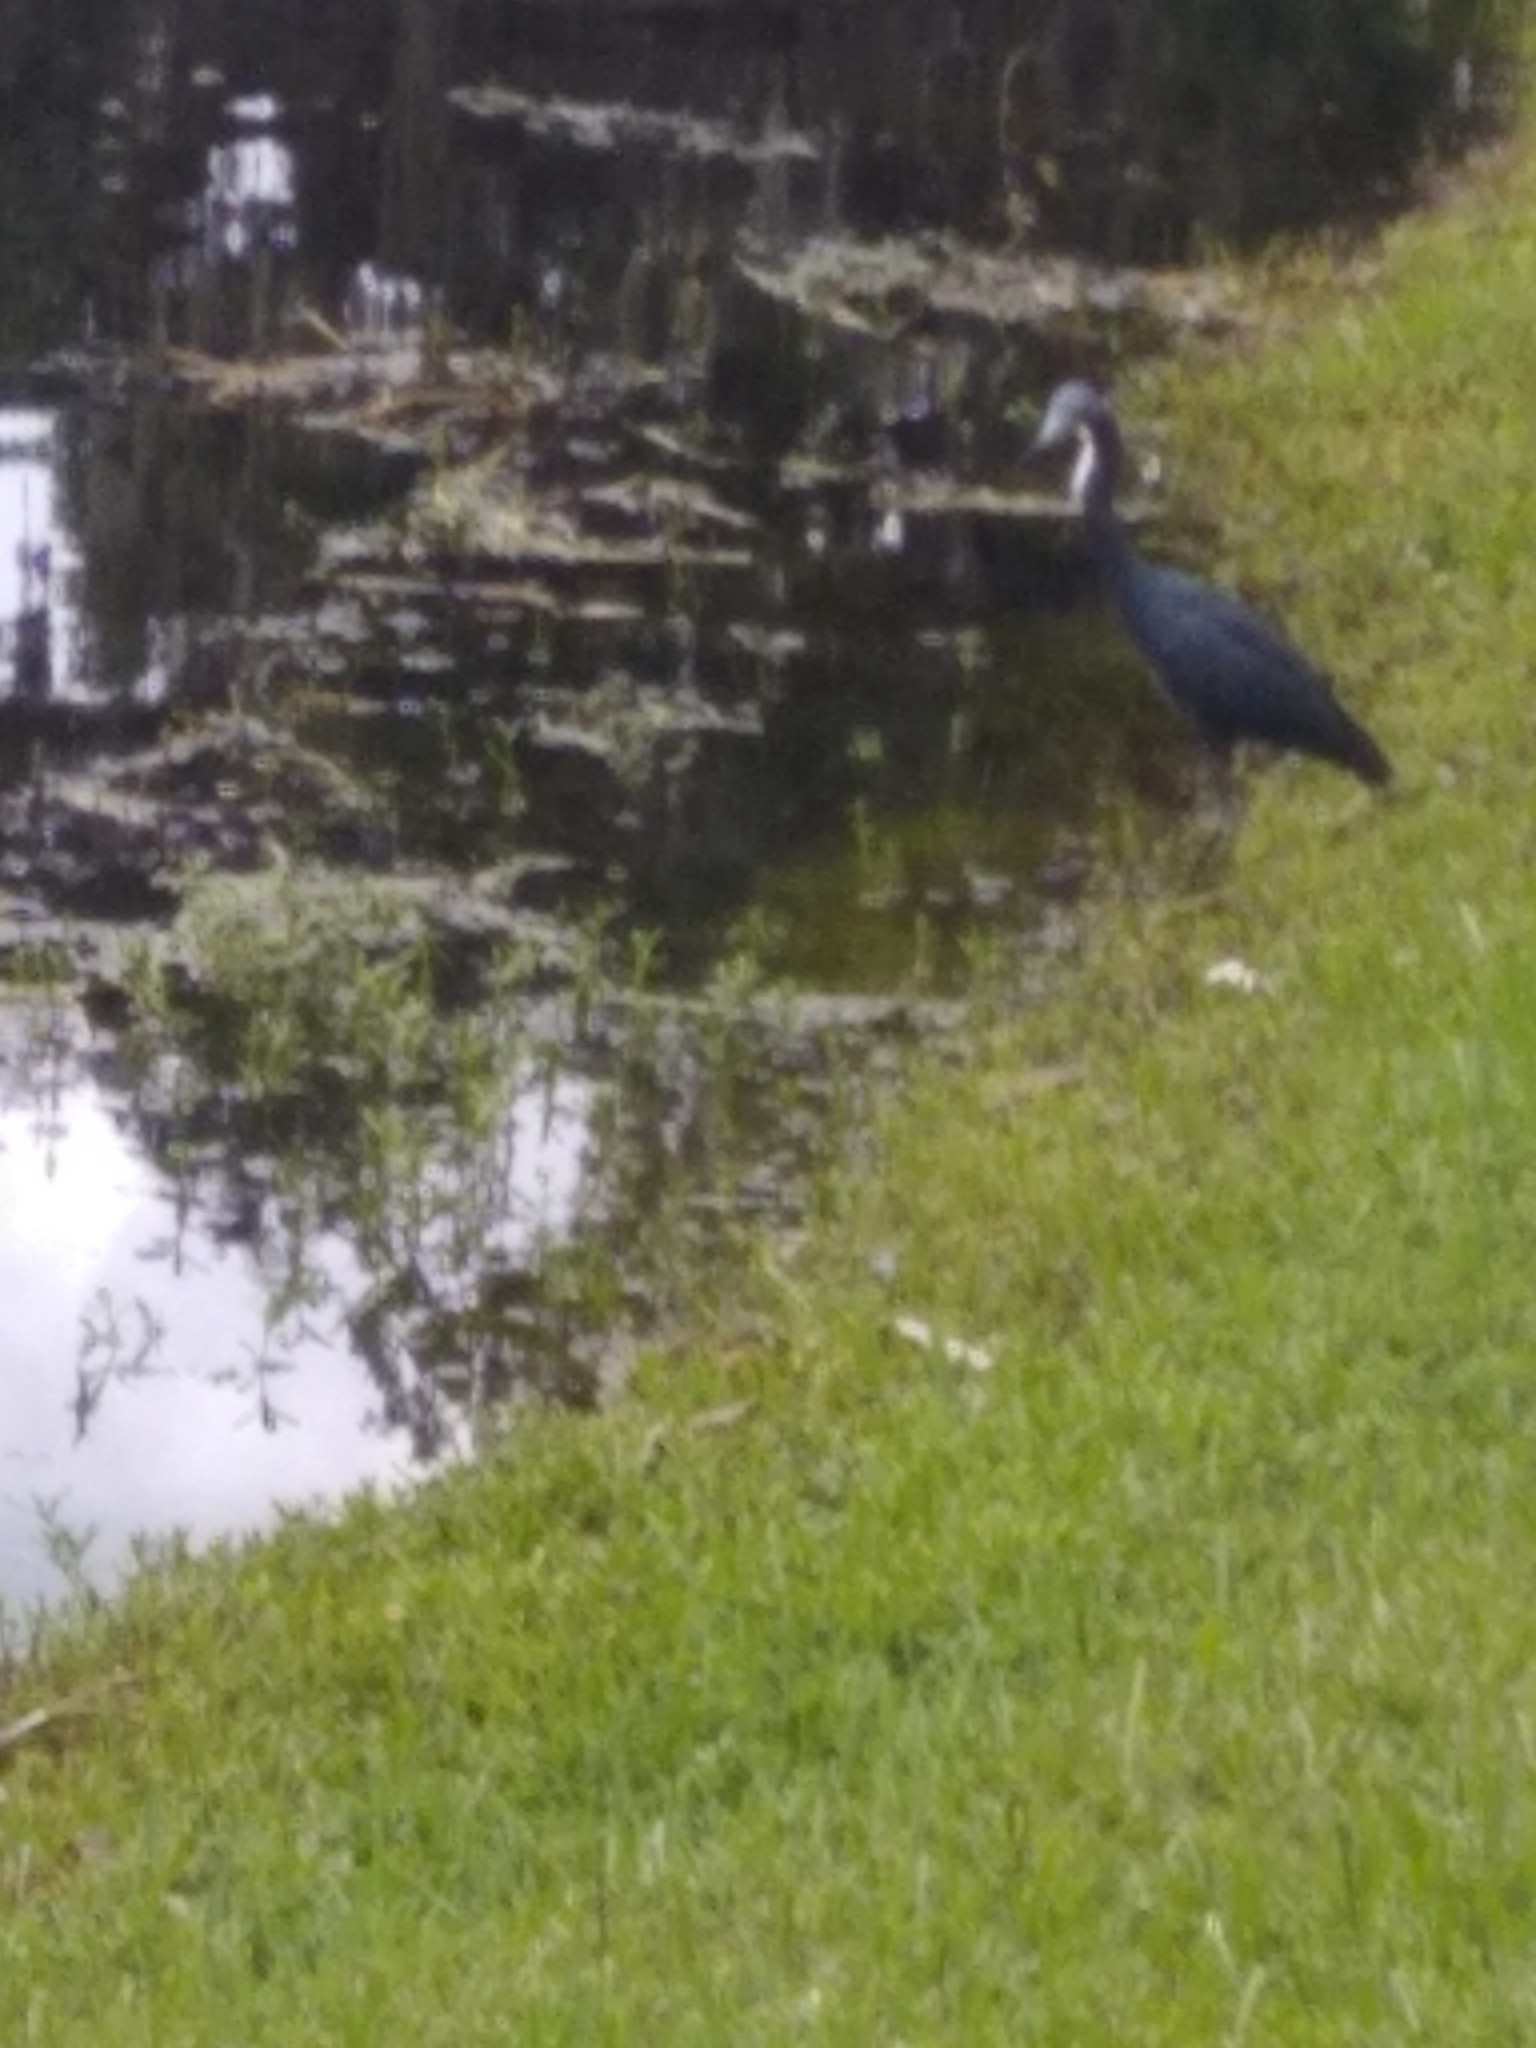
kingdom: Animalia
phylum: Chordata
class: Aves
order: Pelecaniformes
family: Ardeidae
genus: Egretta
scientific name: Egretta caerulea
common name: Little blue heron
